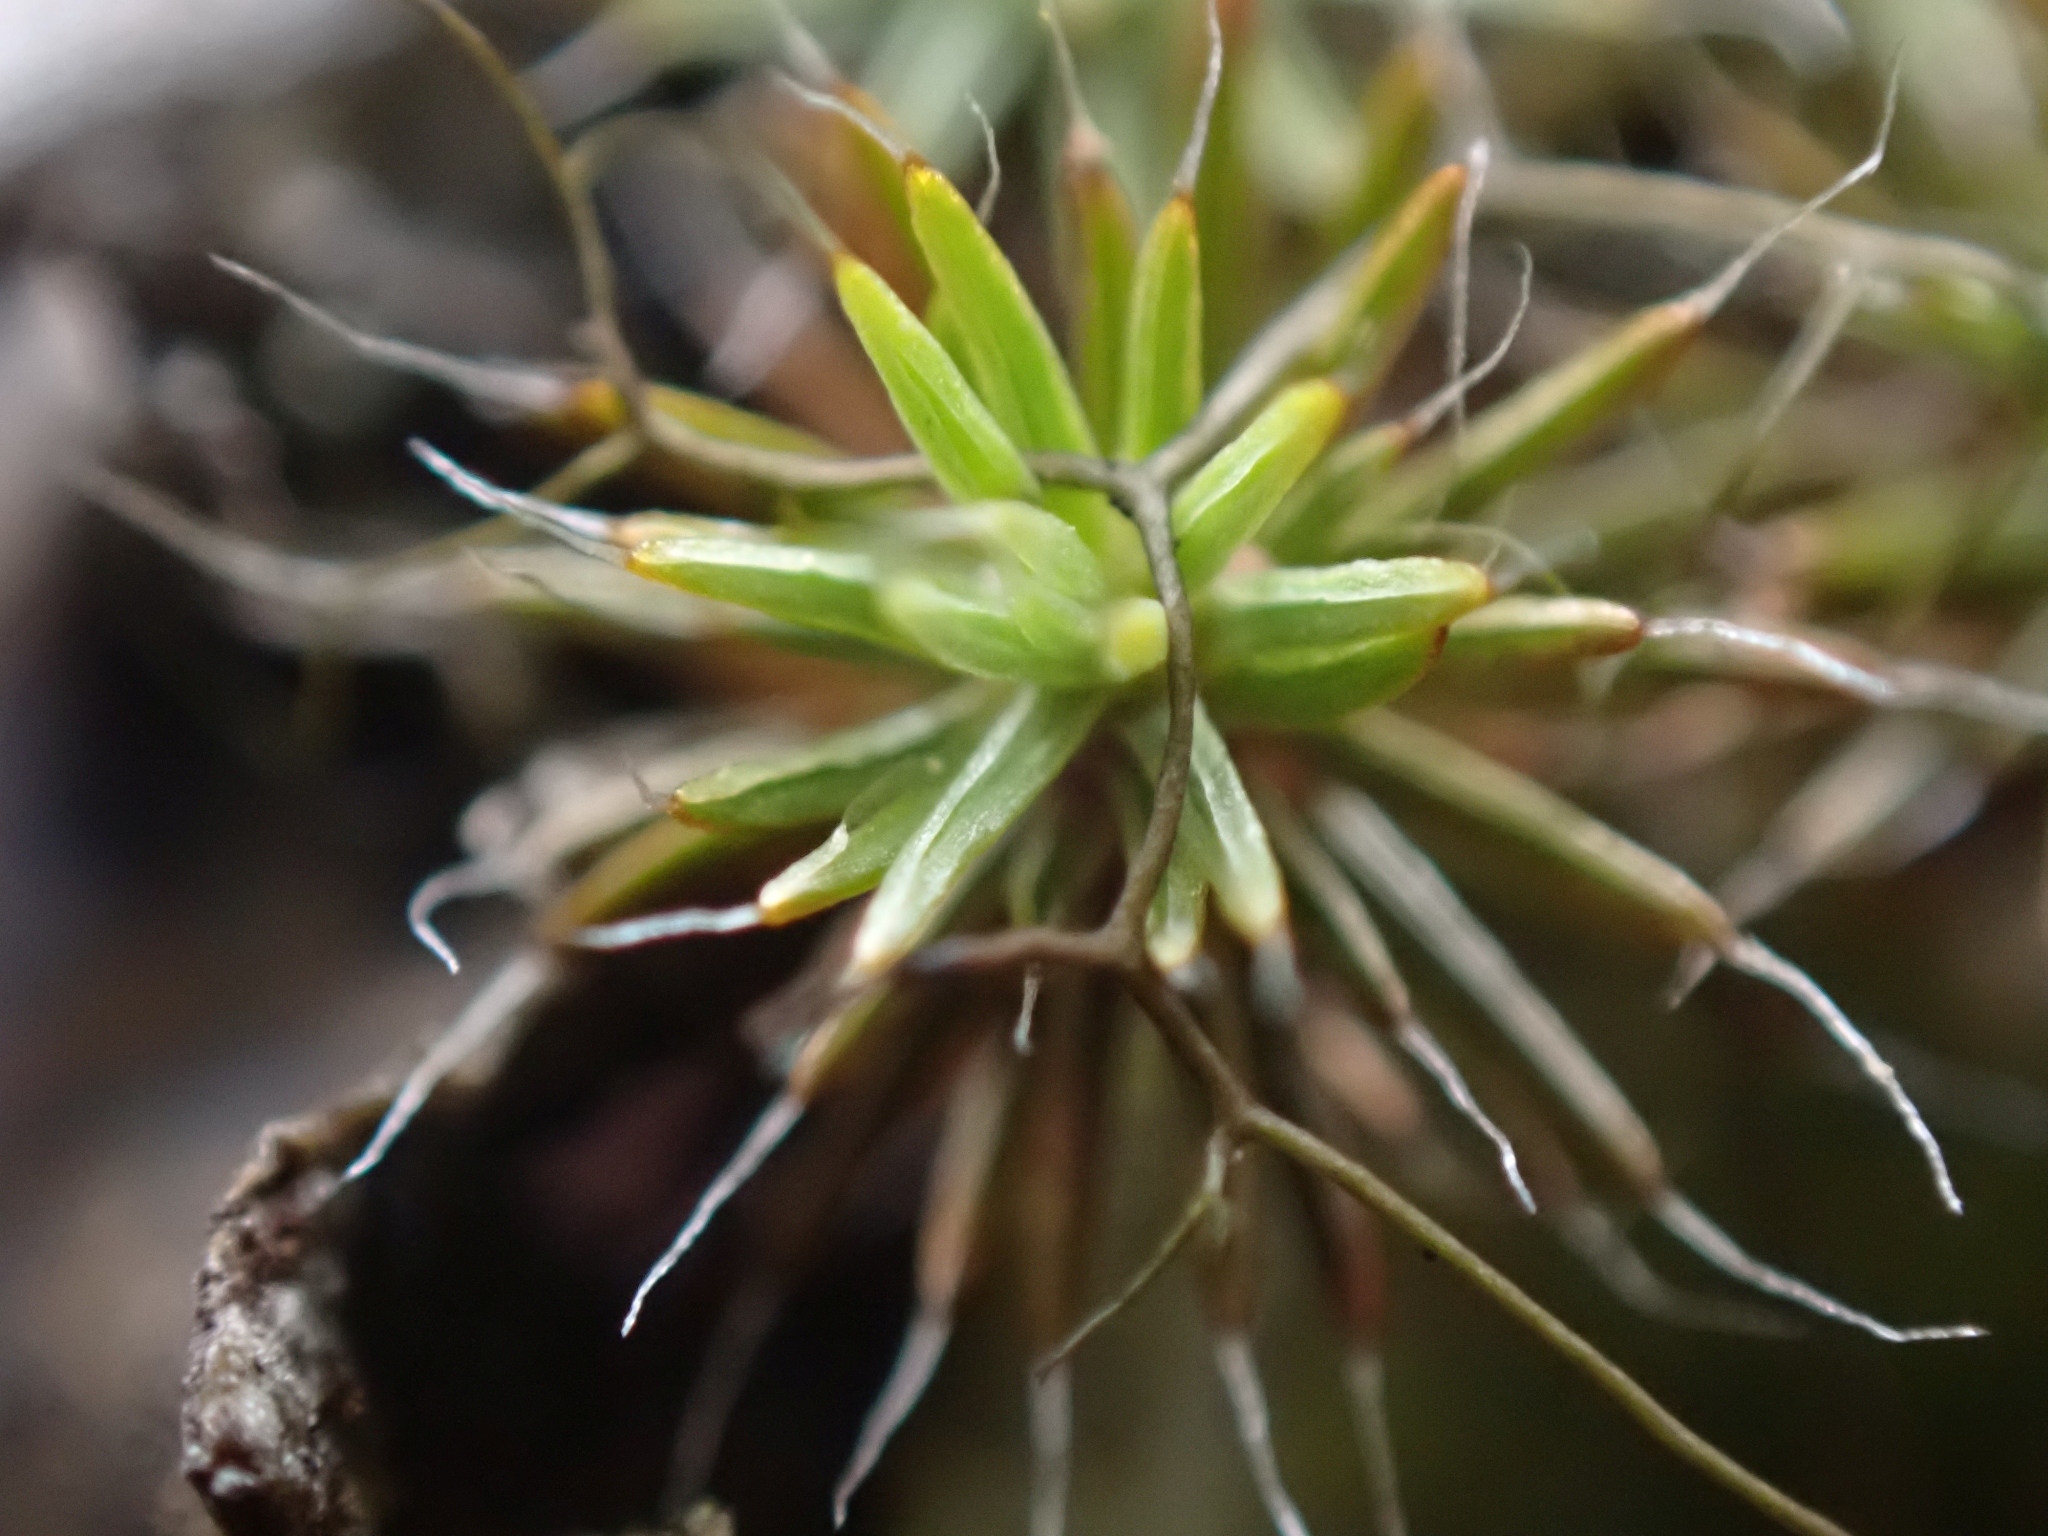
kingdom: Plantae
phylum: Bryophyta
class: Polytrichopsida
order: Polytrichales
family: Polytrichaceae
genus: Polytrichum
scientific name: Polytrichum piliferum
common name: Bristly haircap
